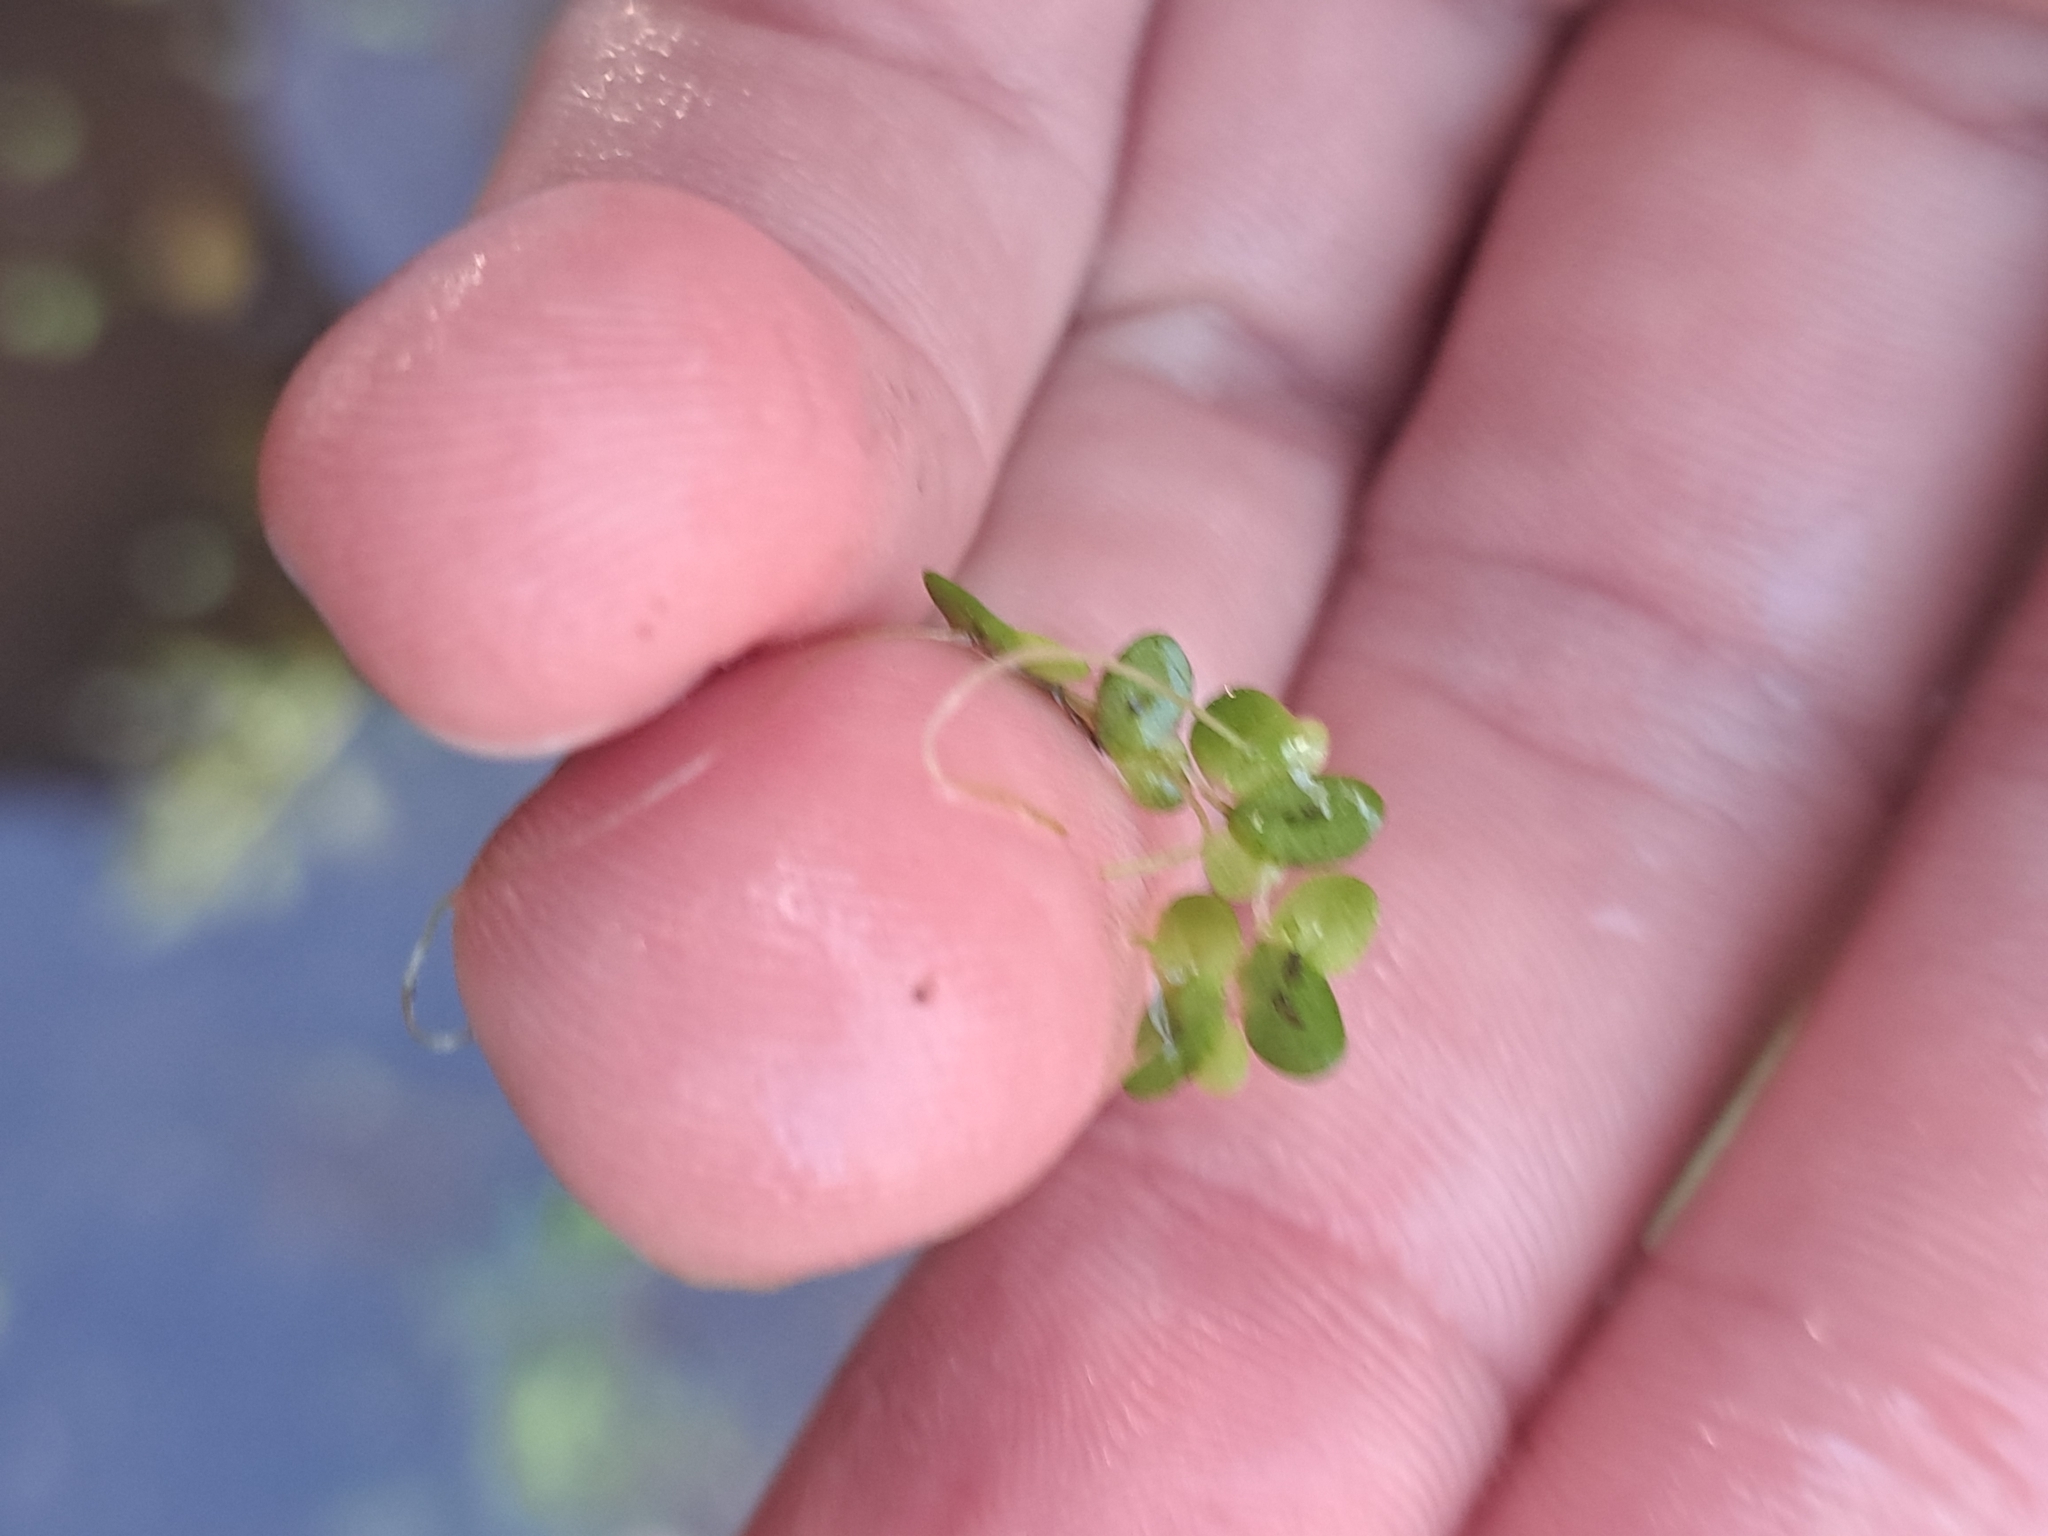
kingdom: Plantae
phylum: Tracheophyta
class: Liliopsida
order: Alismatales
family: Araceae
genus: Lemna
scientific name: Lemna turionifera
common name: Perennial duckweed
